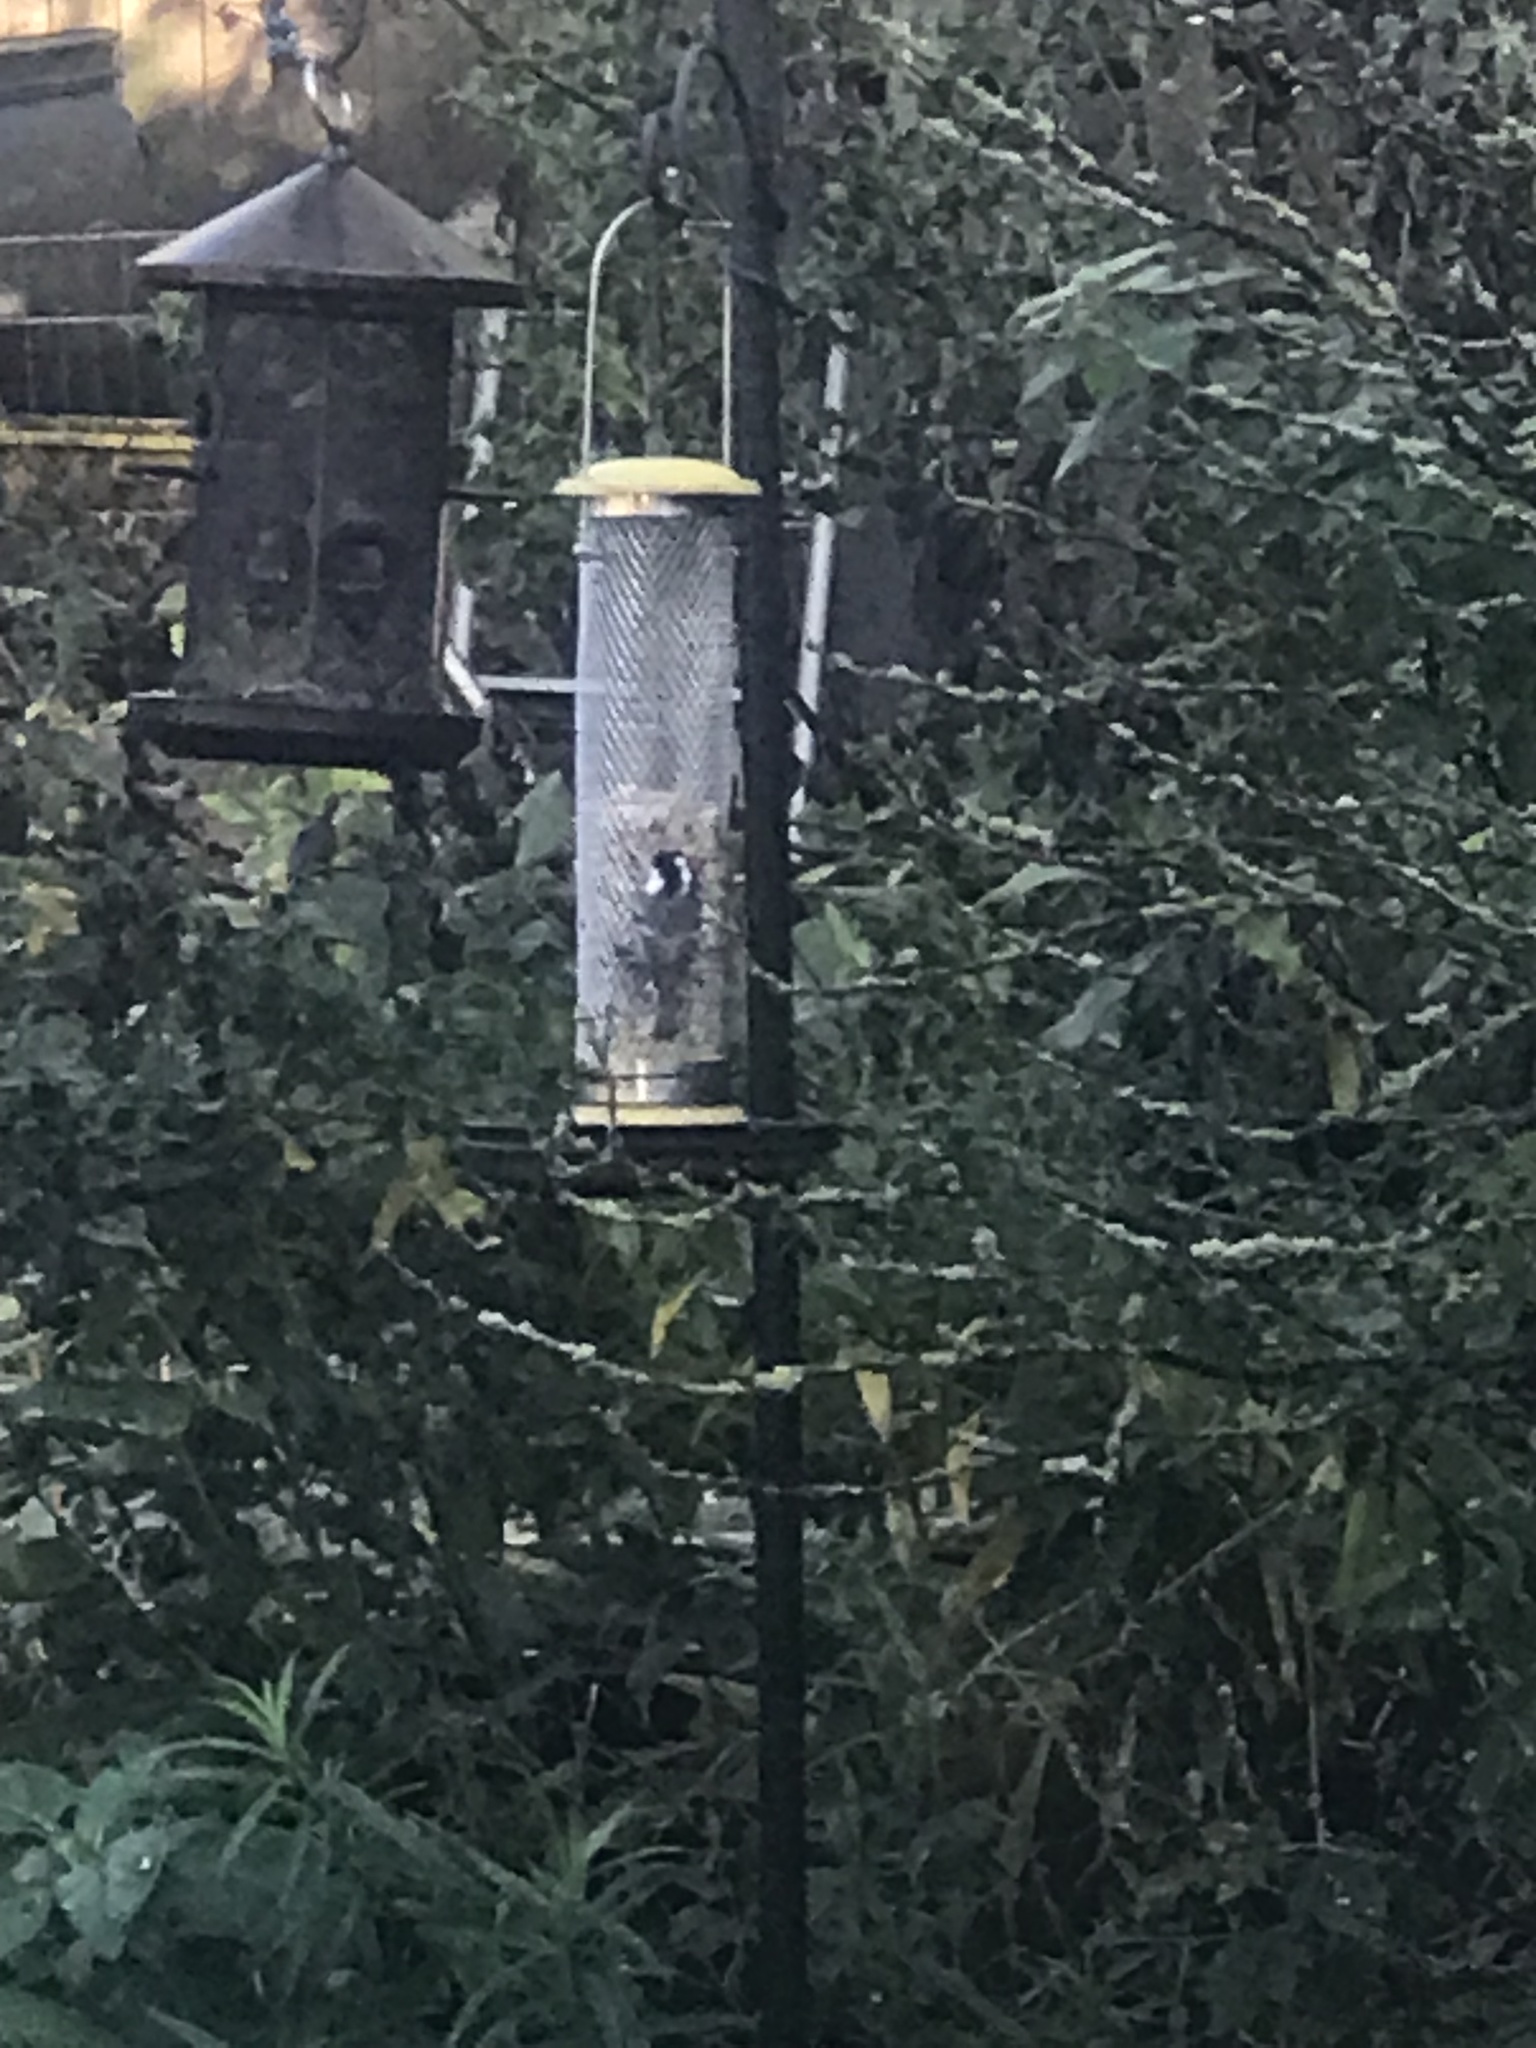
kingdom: Animalia
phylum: Chordata
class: Aves
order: Passeriformes
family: Paridae
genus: Periparus
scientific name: Periparus ater
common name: Coal tit
